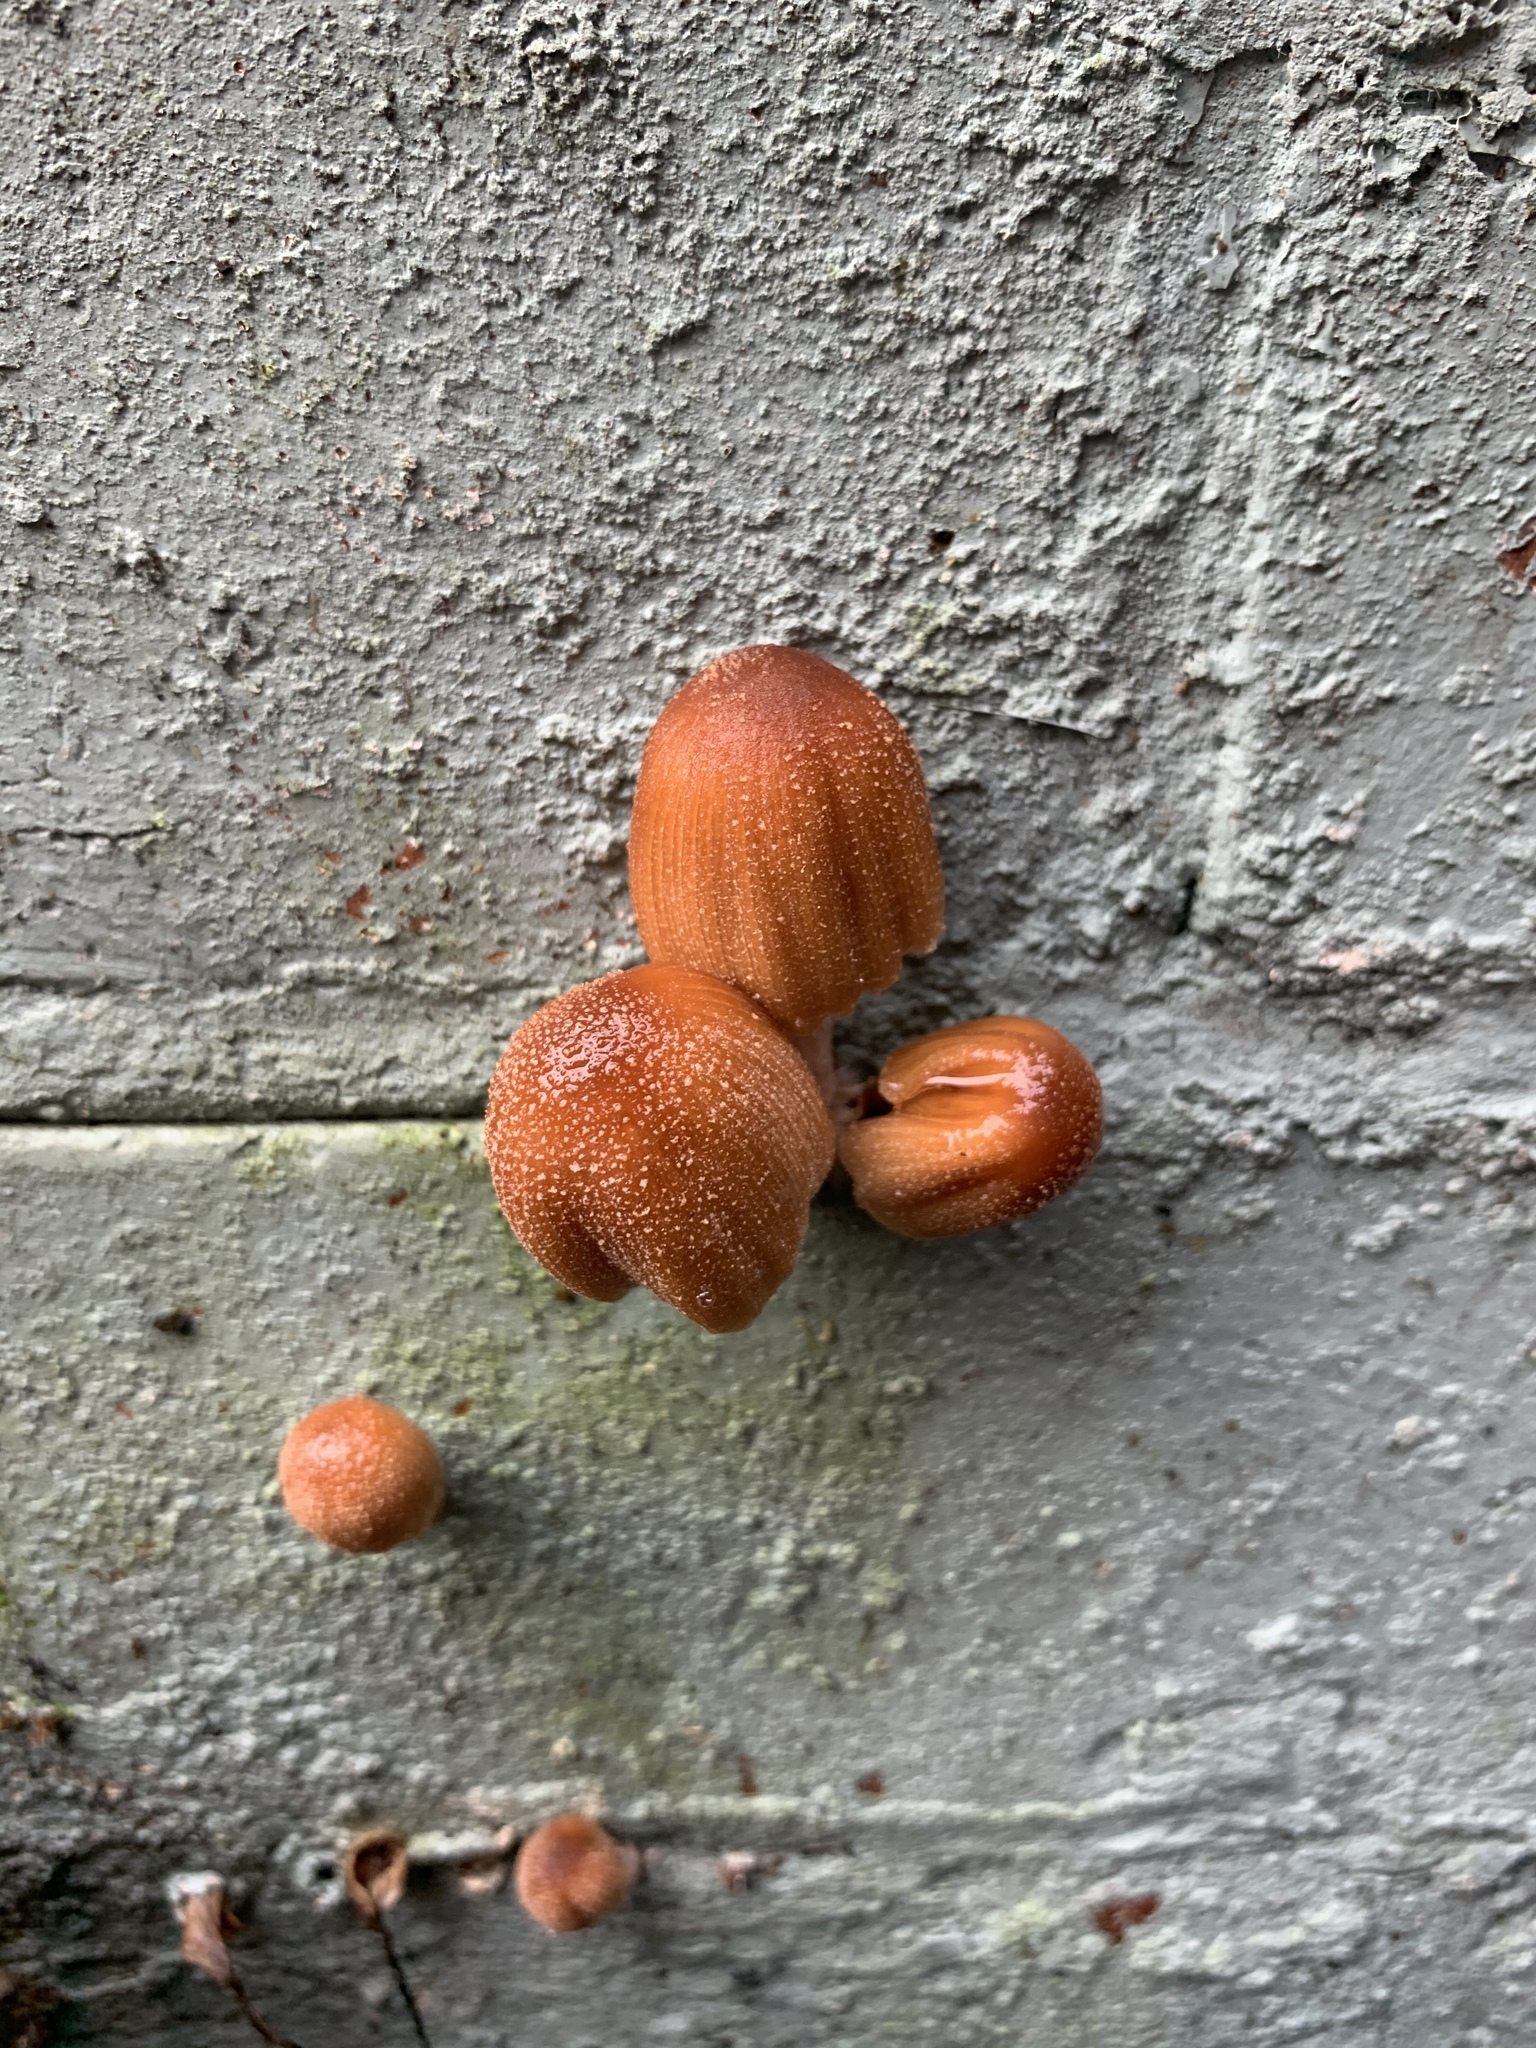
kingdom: Fungi
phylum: Basidiomycota
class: Agaricomycetes
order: Agaricales
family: Psathyrellaceae
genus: Coprinellus
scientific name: Coprinellus micaceus
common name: Glistening ink-cap
